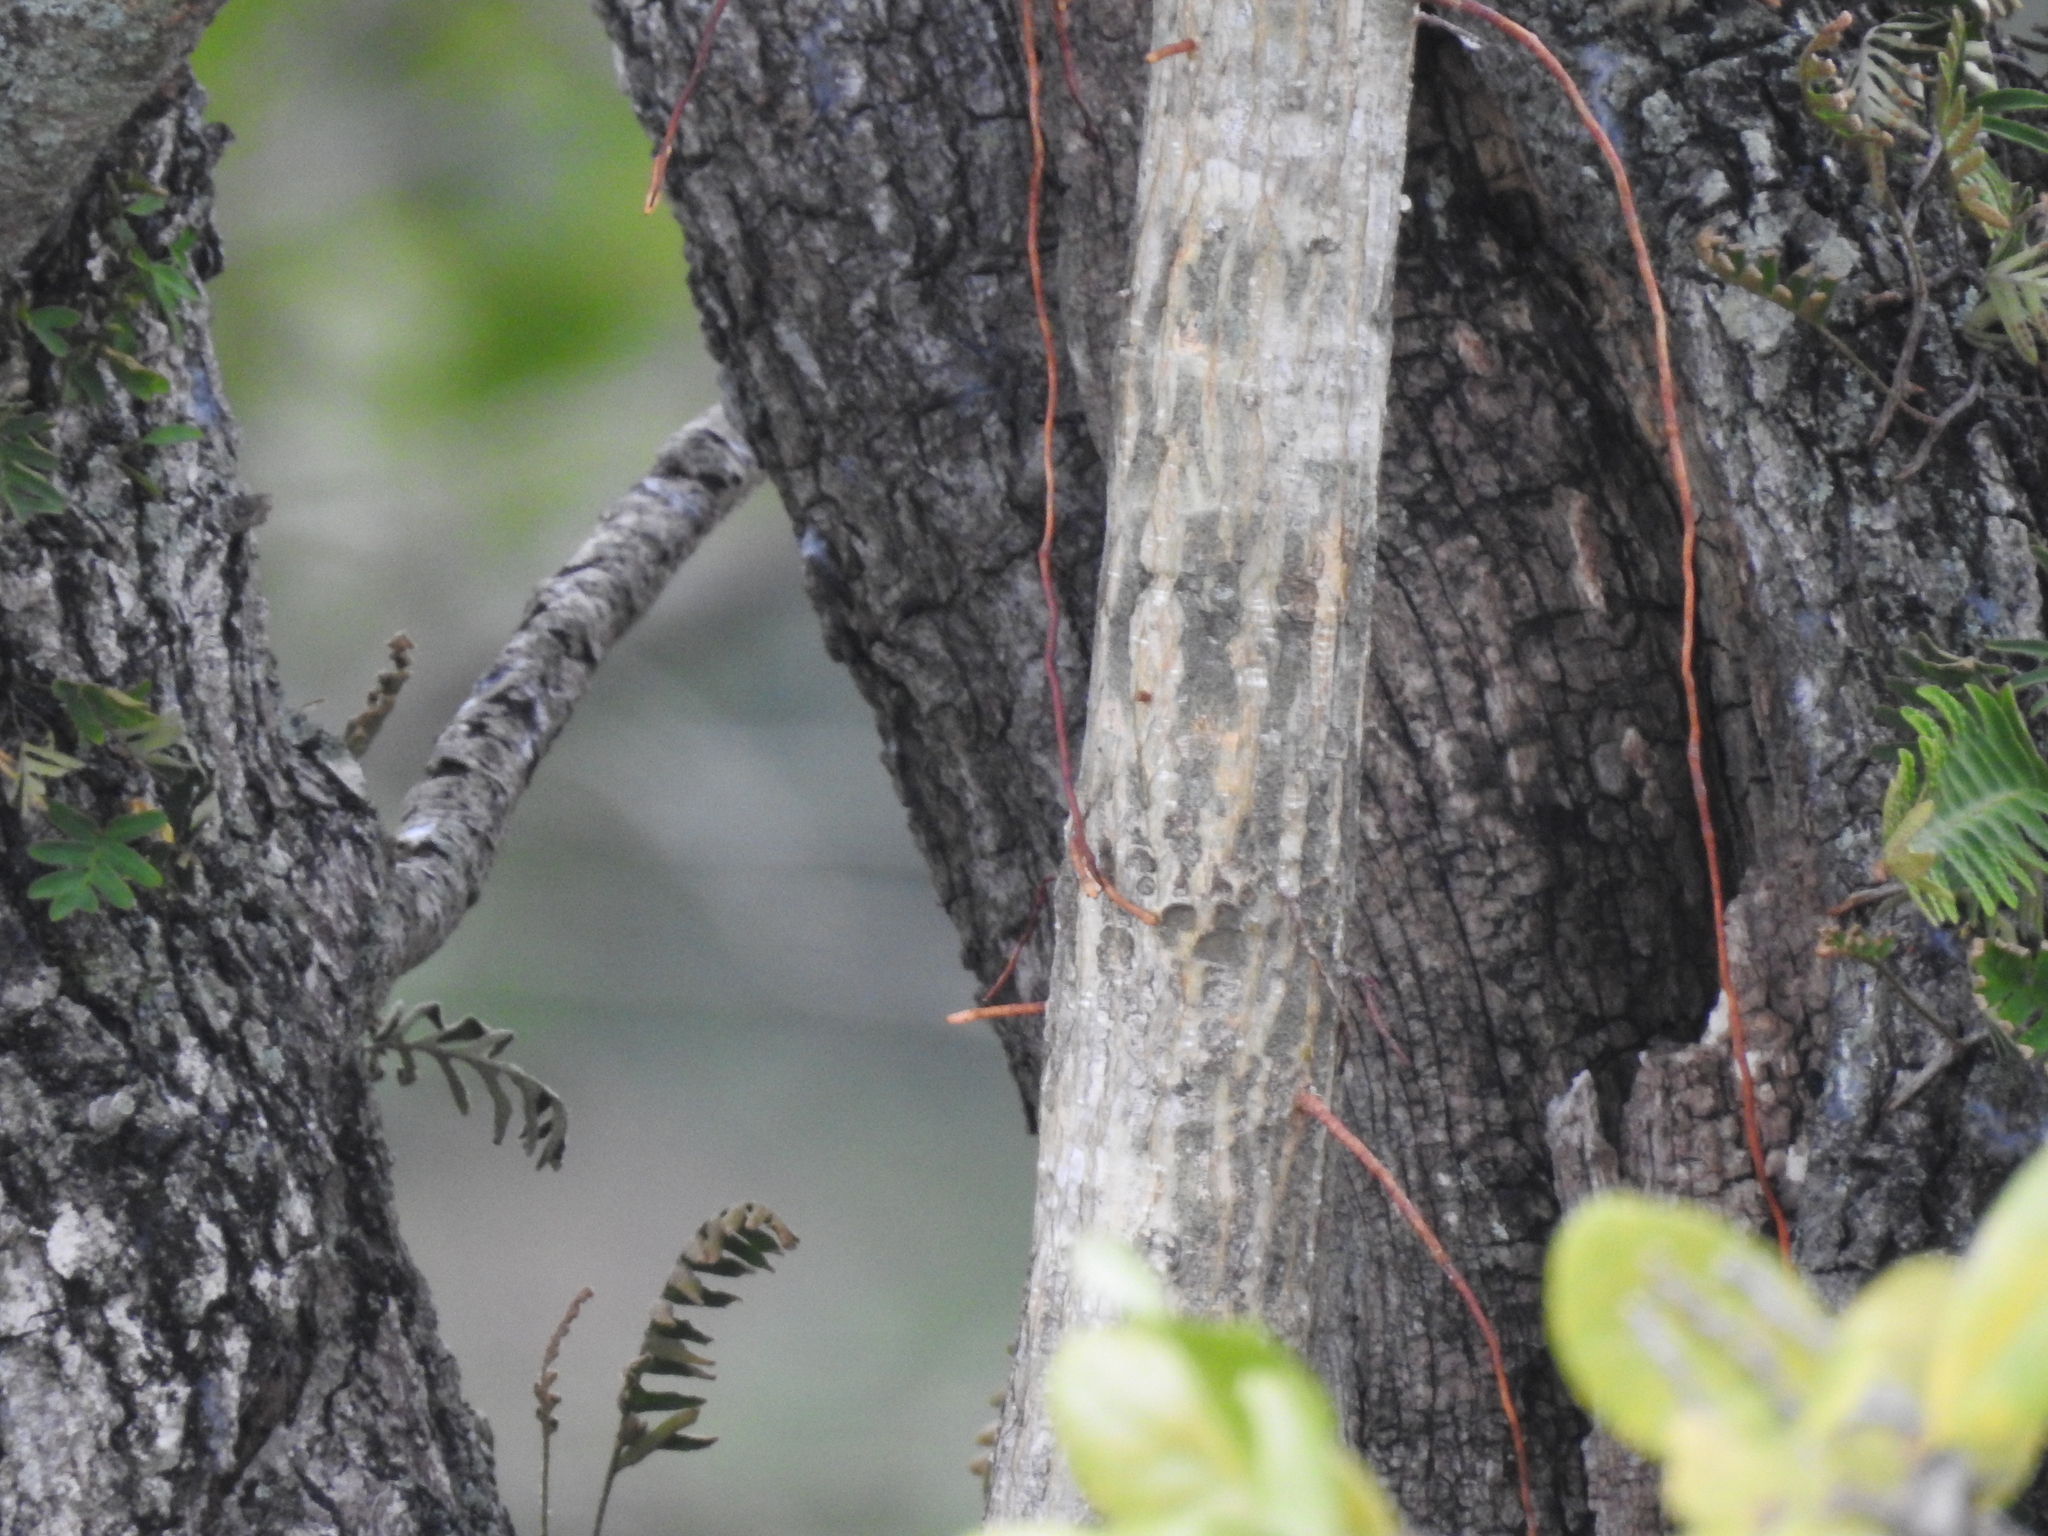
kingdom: Plantae
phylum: Tracheophyta
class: Magnoliopsida
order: Rosales
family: Moraceae
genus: Ficus
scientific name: Ficus aurea
